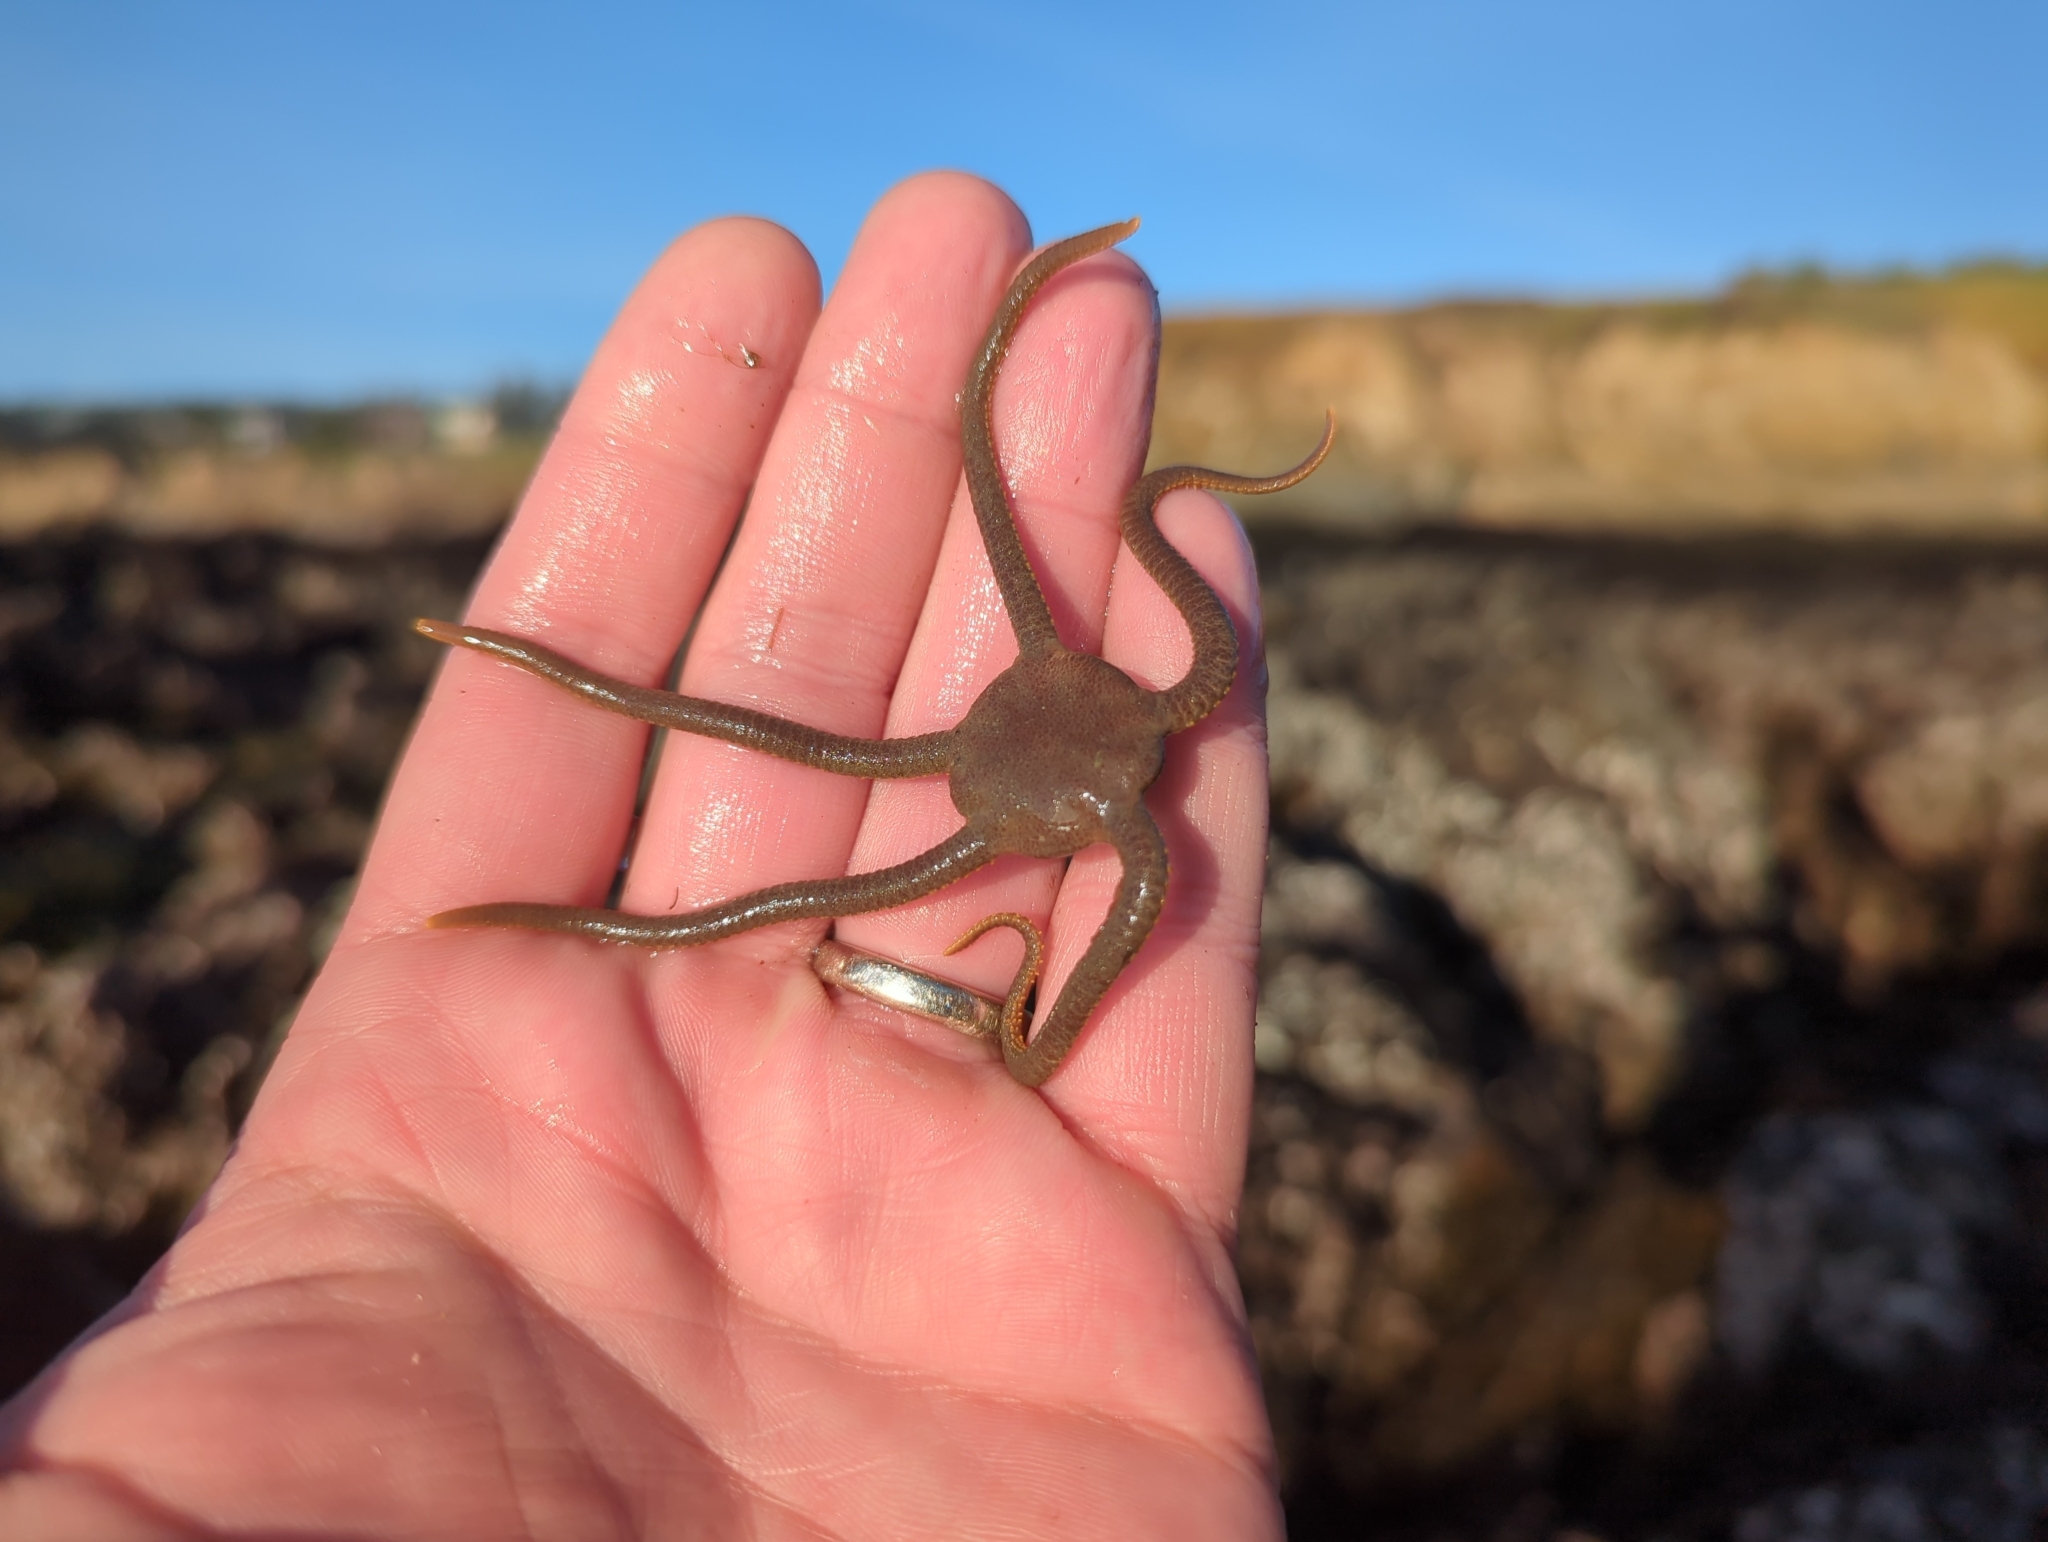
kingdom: Animalia
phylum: Echinodermata
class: Ophiuroidea
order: Amphilepidida
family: Hemieuryalidae
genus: Ophioplocus
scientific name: Ophioplocus esmarki
